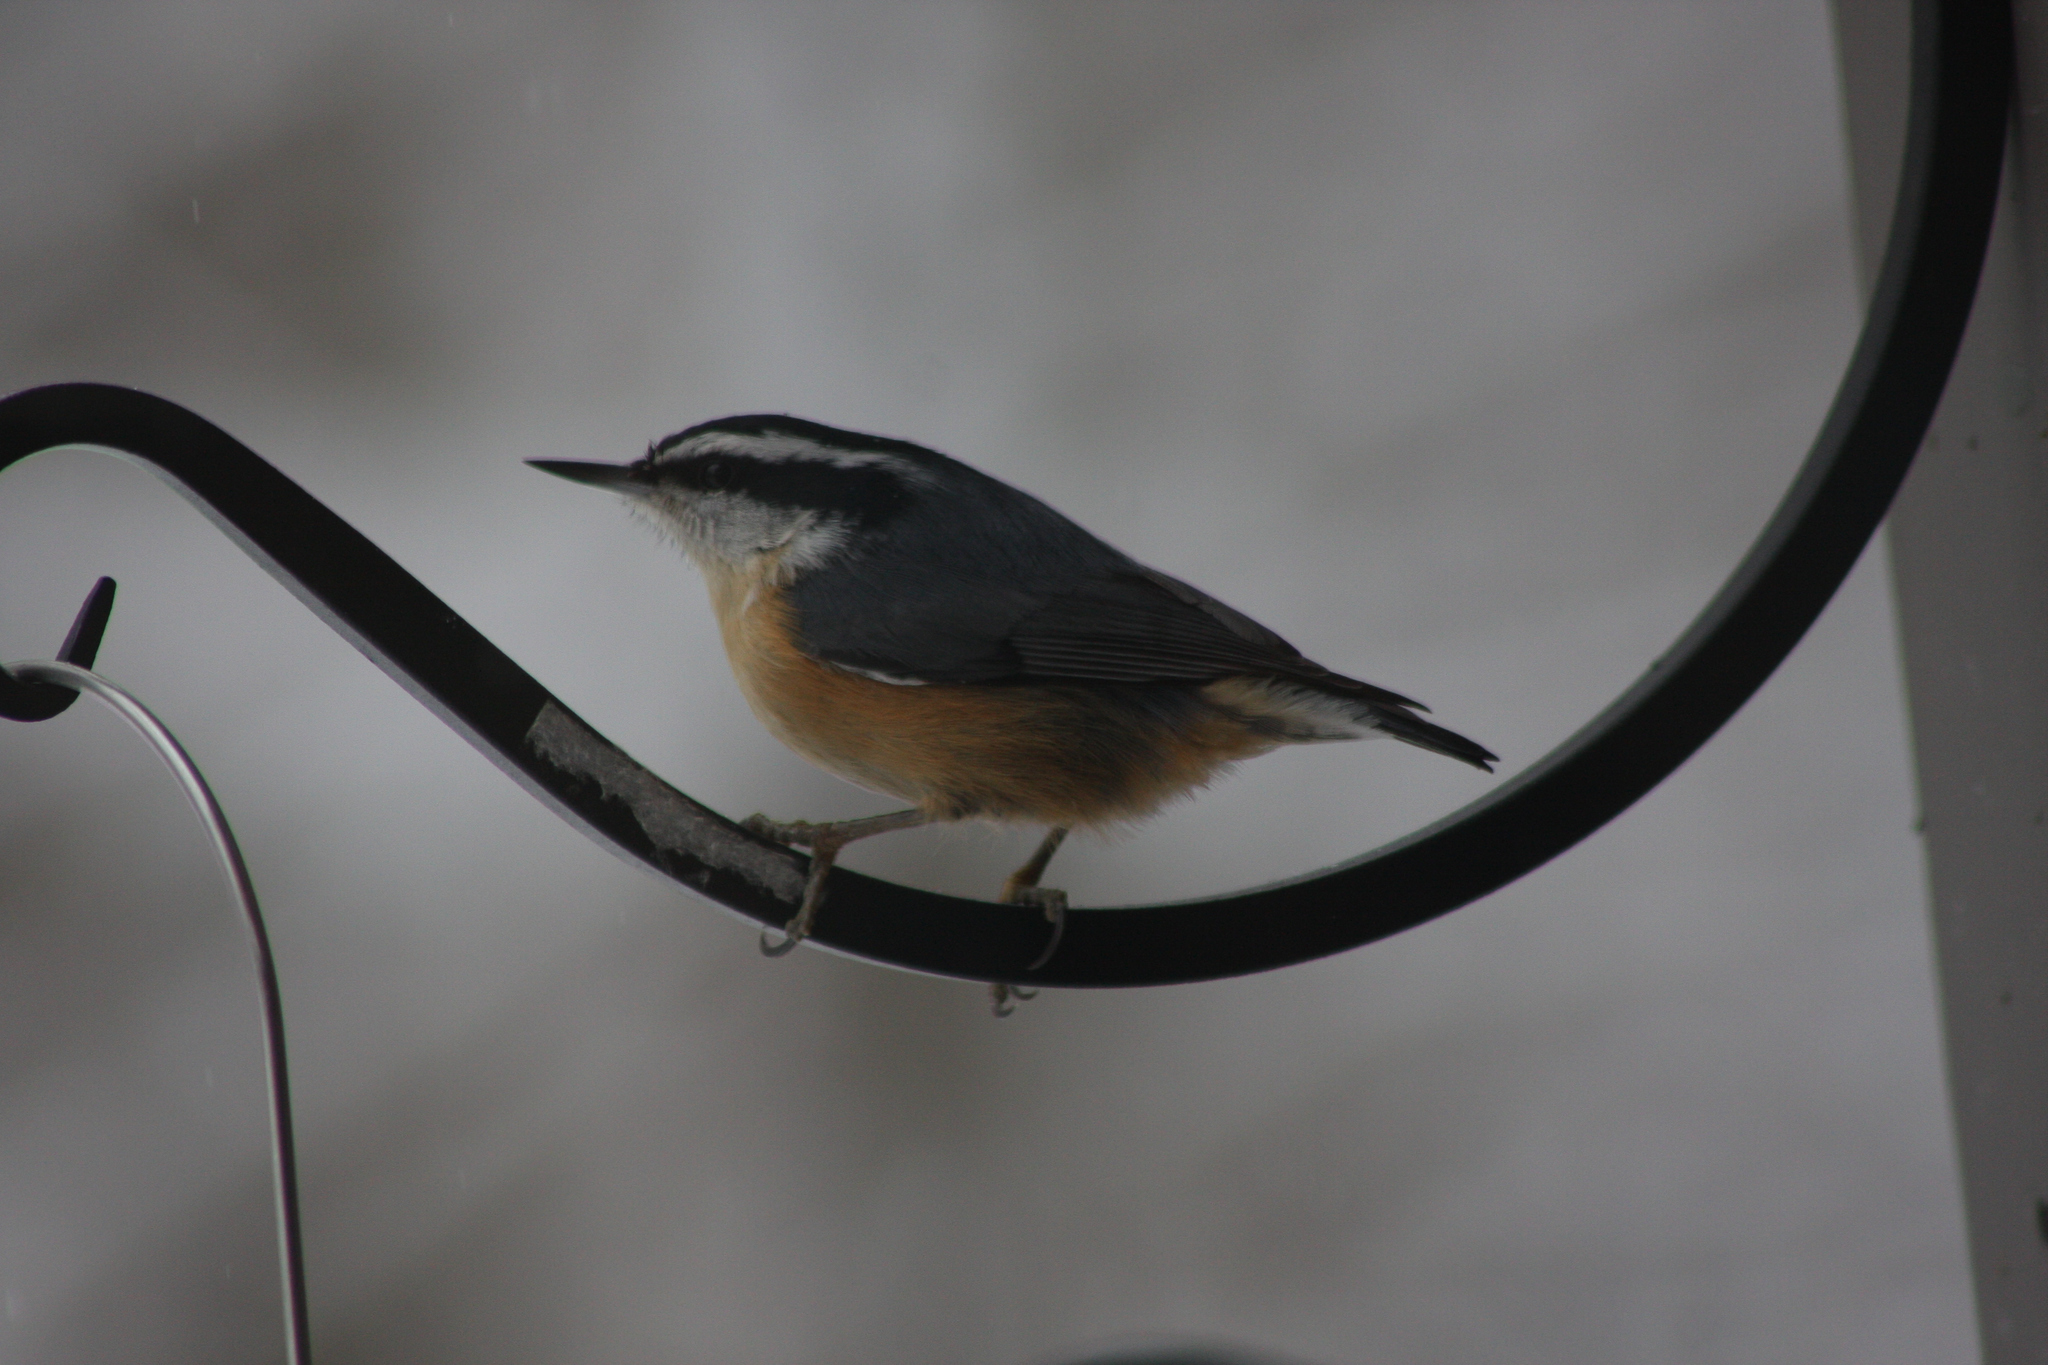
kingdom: Animalia
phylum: Chordata
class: Aves
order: Passeriformes
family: Sittidae
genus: Sitta
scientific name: Sitta canadensis
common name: Red-breasted nuthatch
